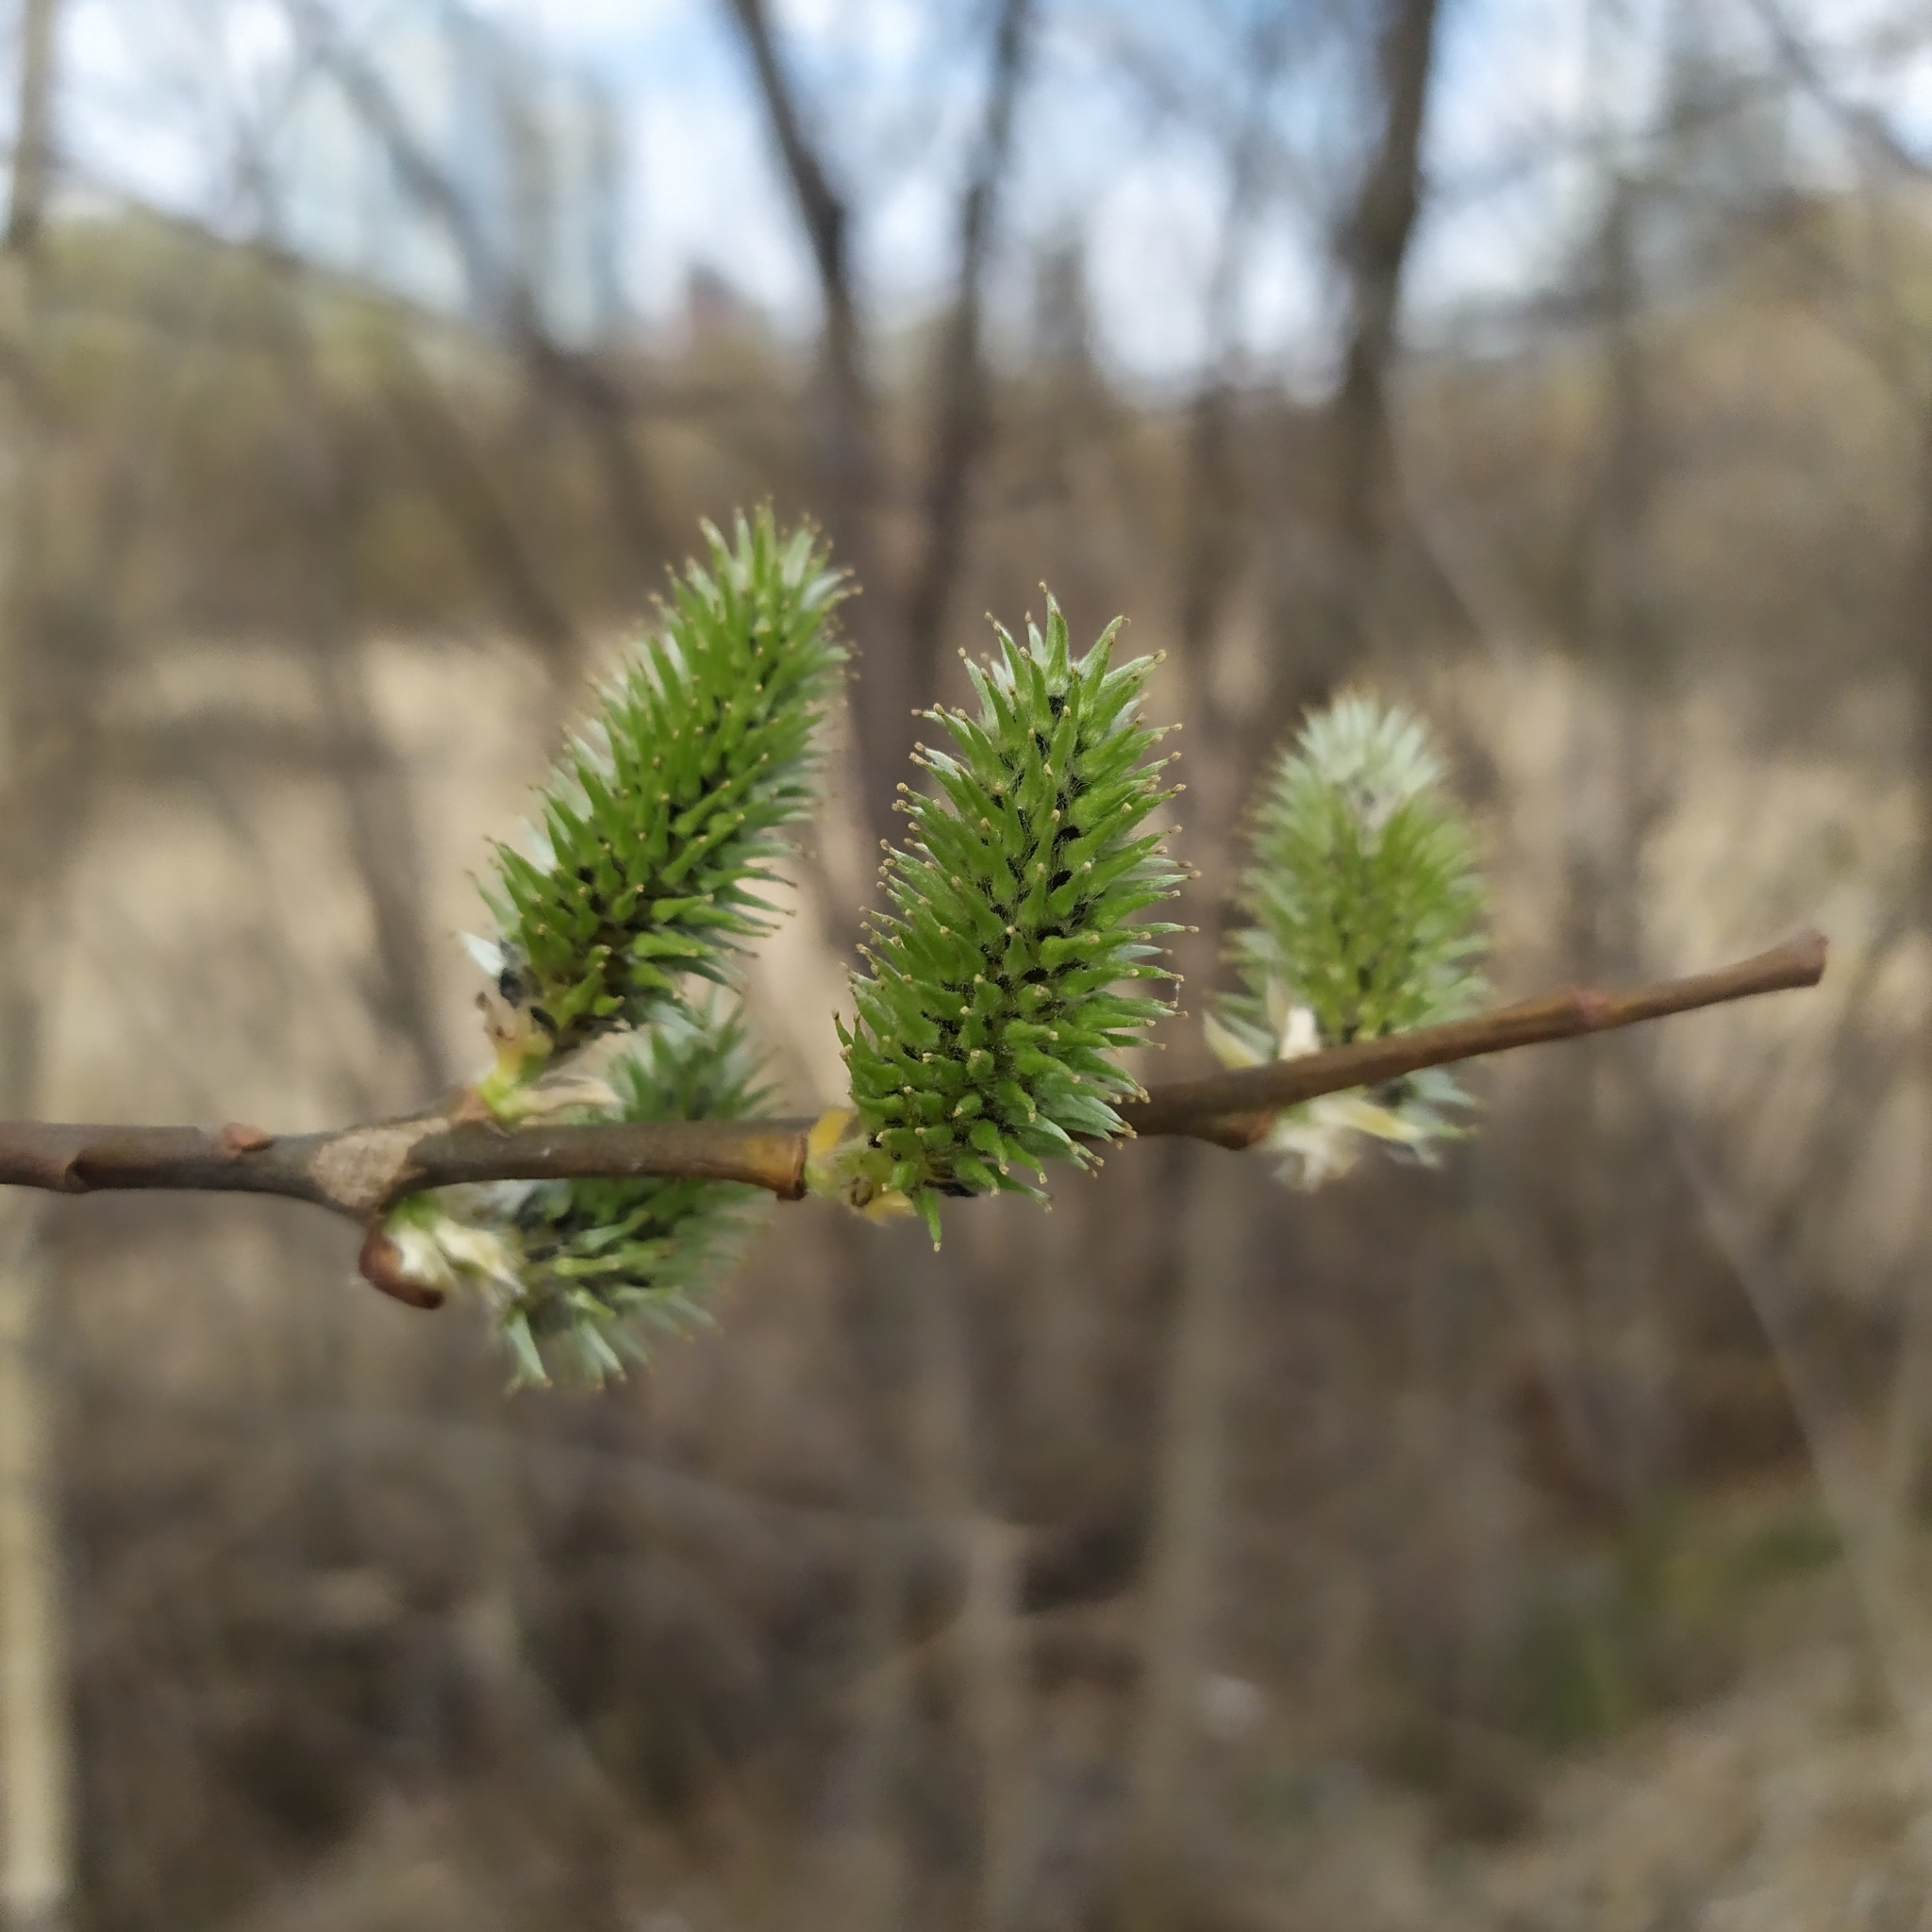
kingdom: Plantae
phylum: Tracheophyta
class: Magnoliopsida
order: Malpighiales
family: Salicaceae
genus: Salix
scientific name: Salix caprea
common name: Goat willow
